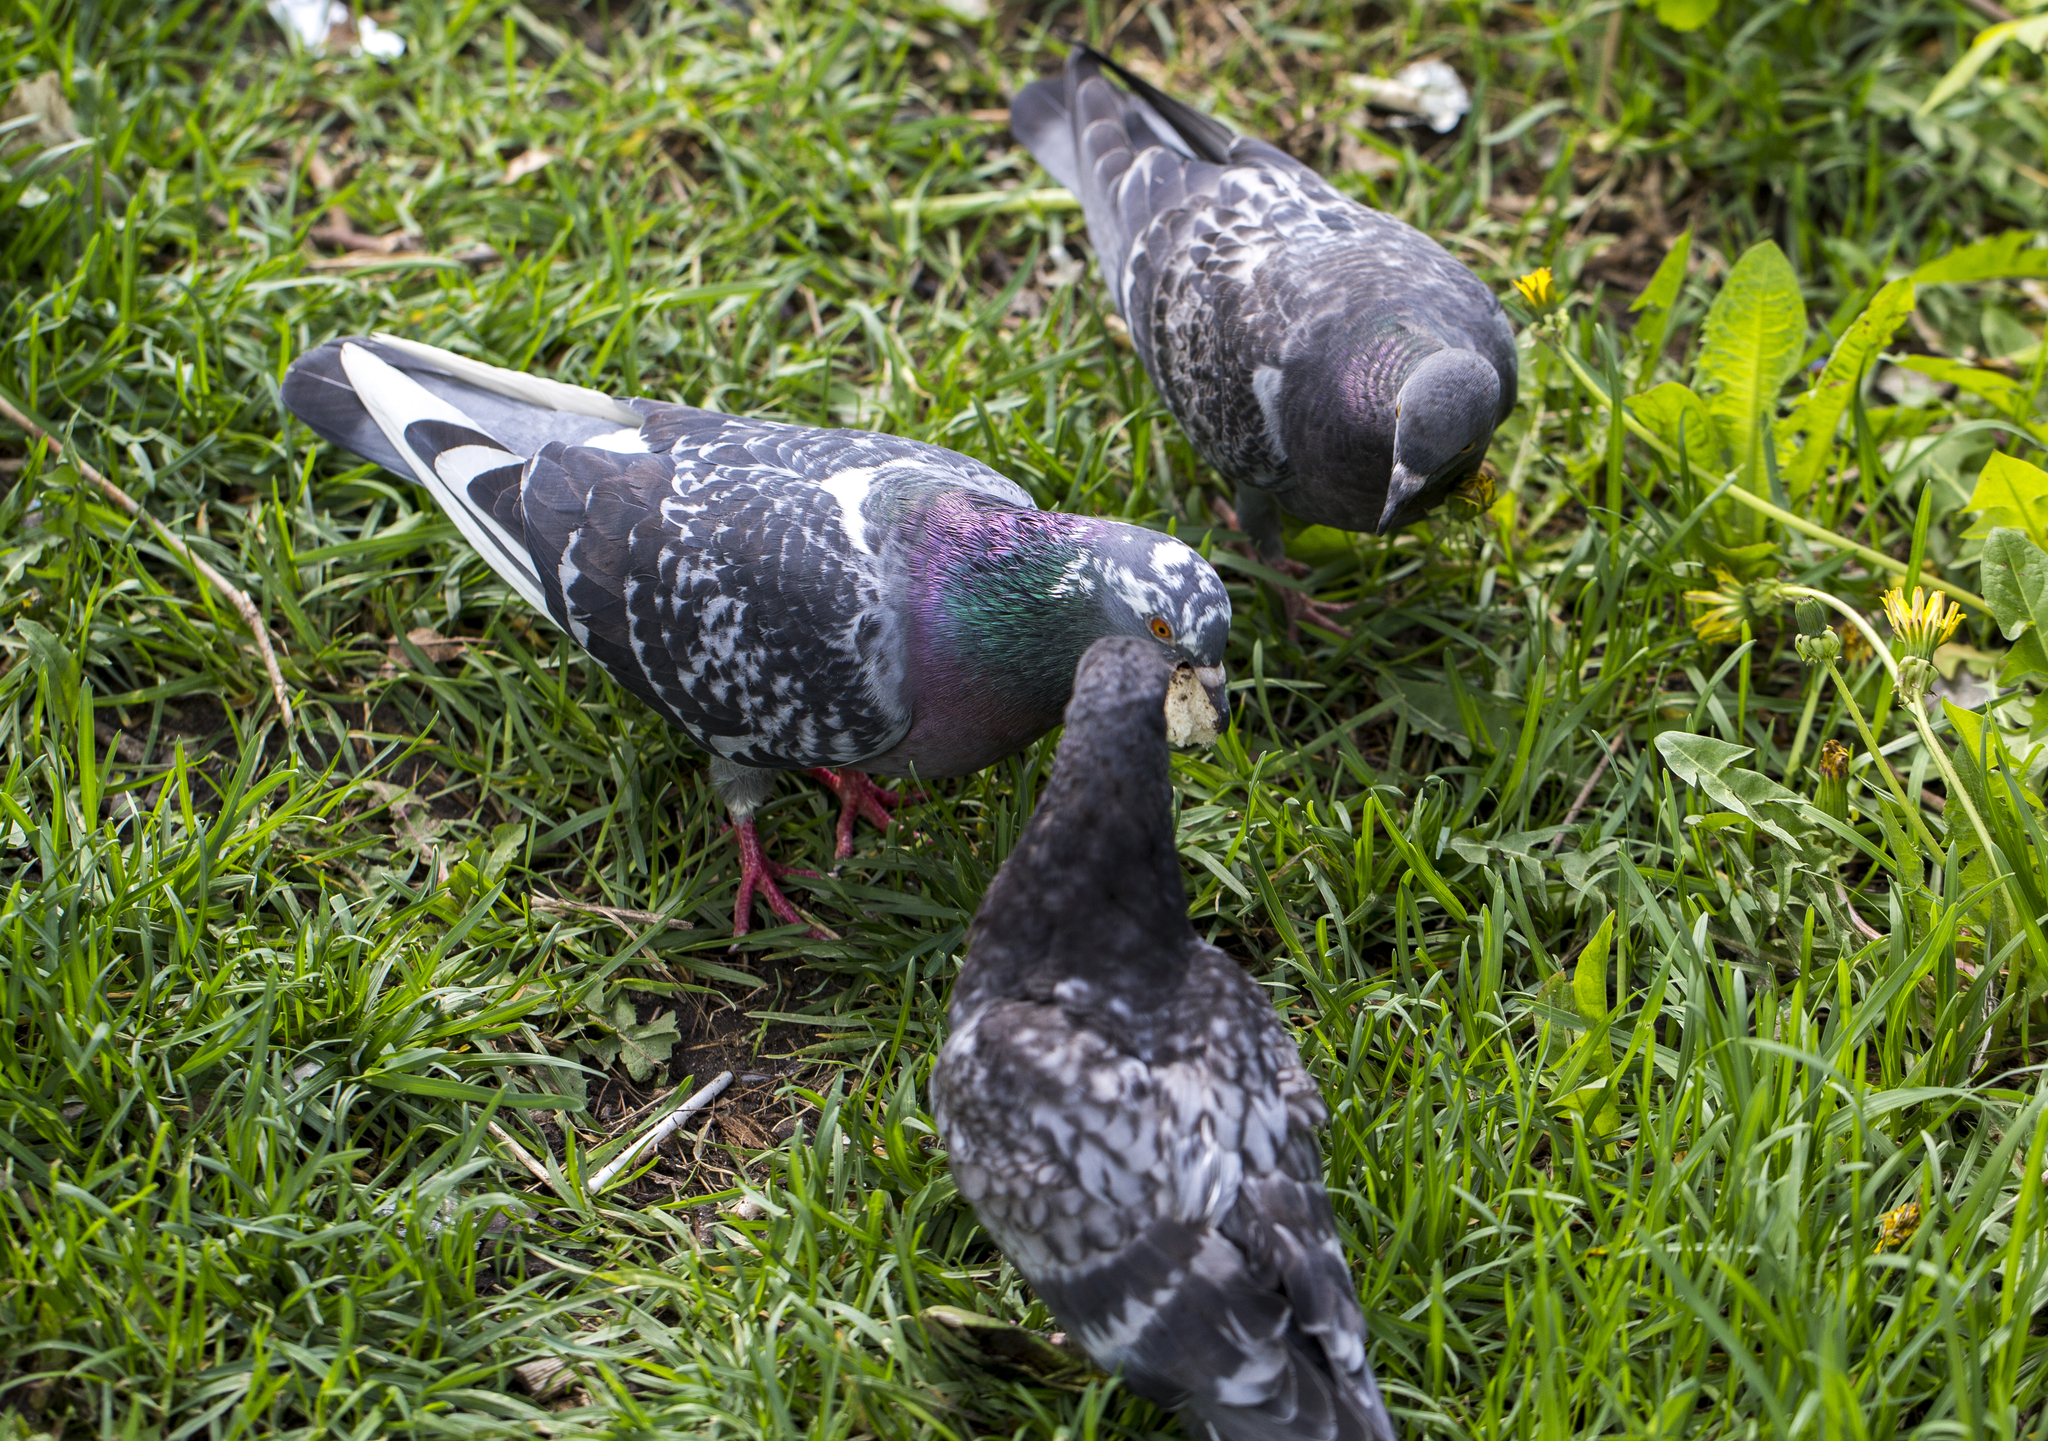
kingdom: Animalia
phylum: Chordata
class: Aves
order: Columbiformes
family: Columbidae
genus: Columba
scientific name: Columba livia
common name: Rock pigeon
